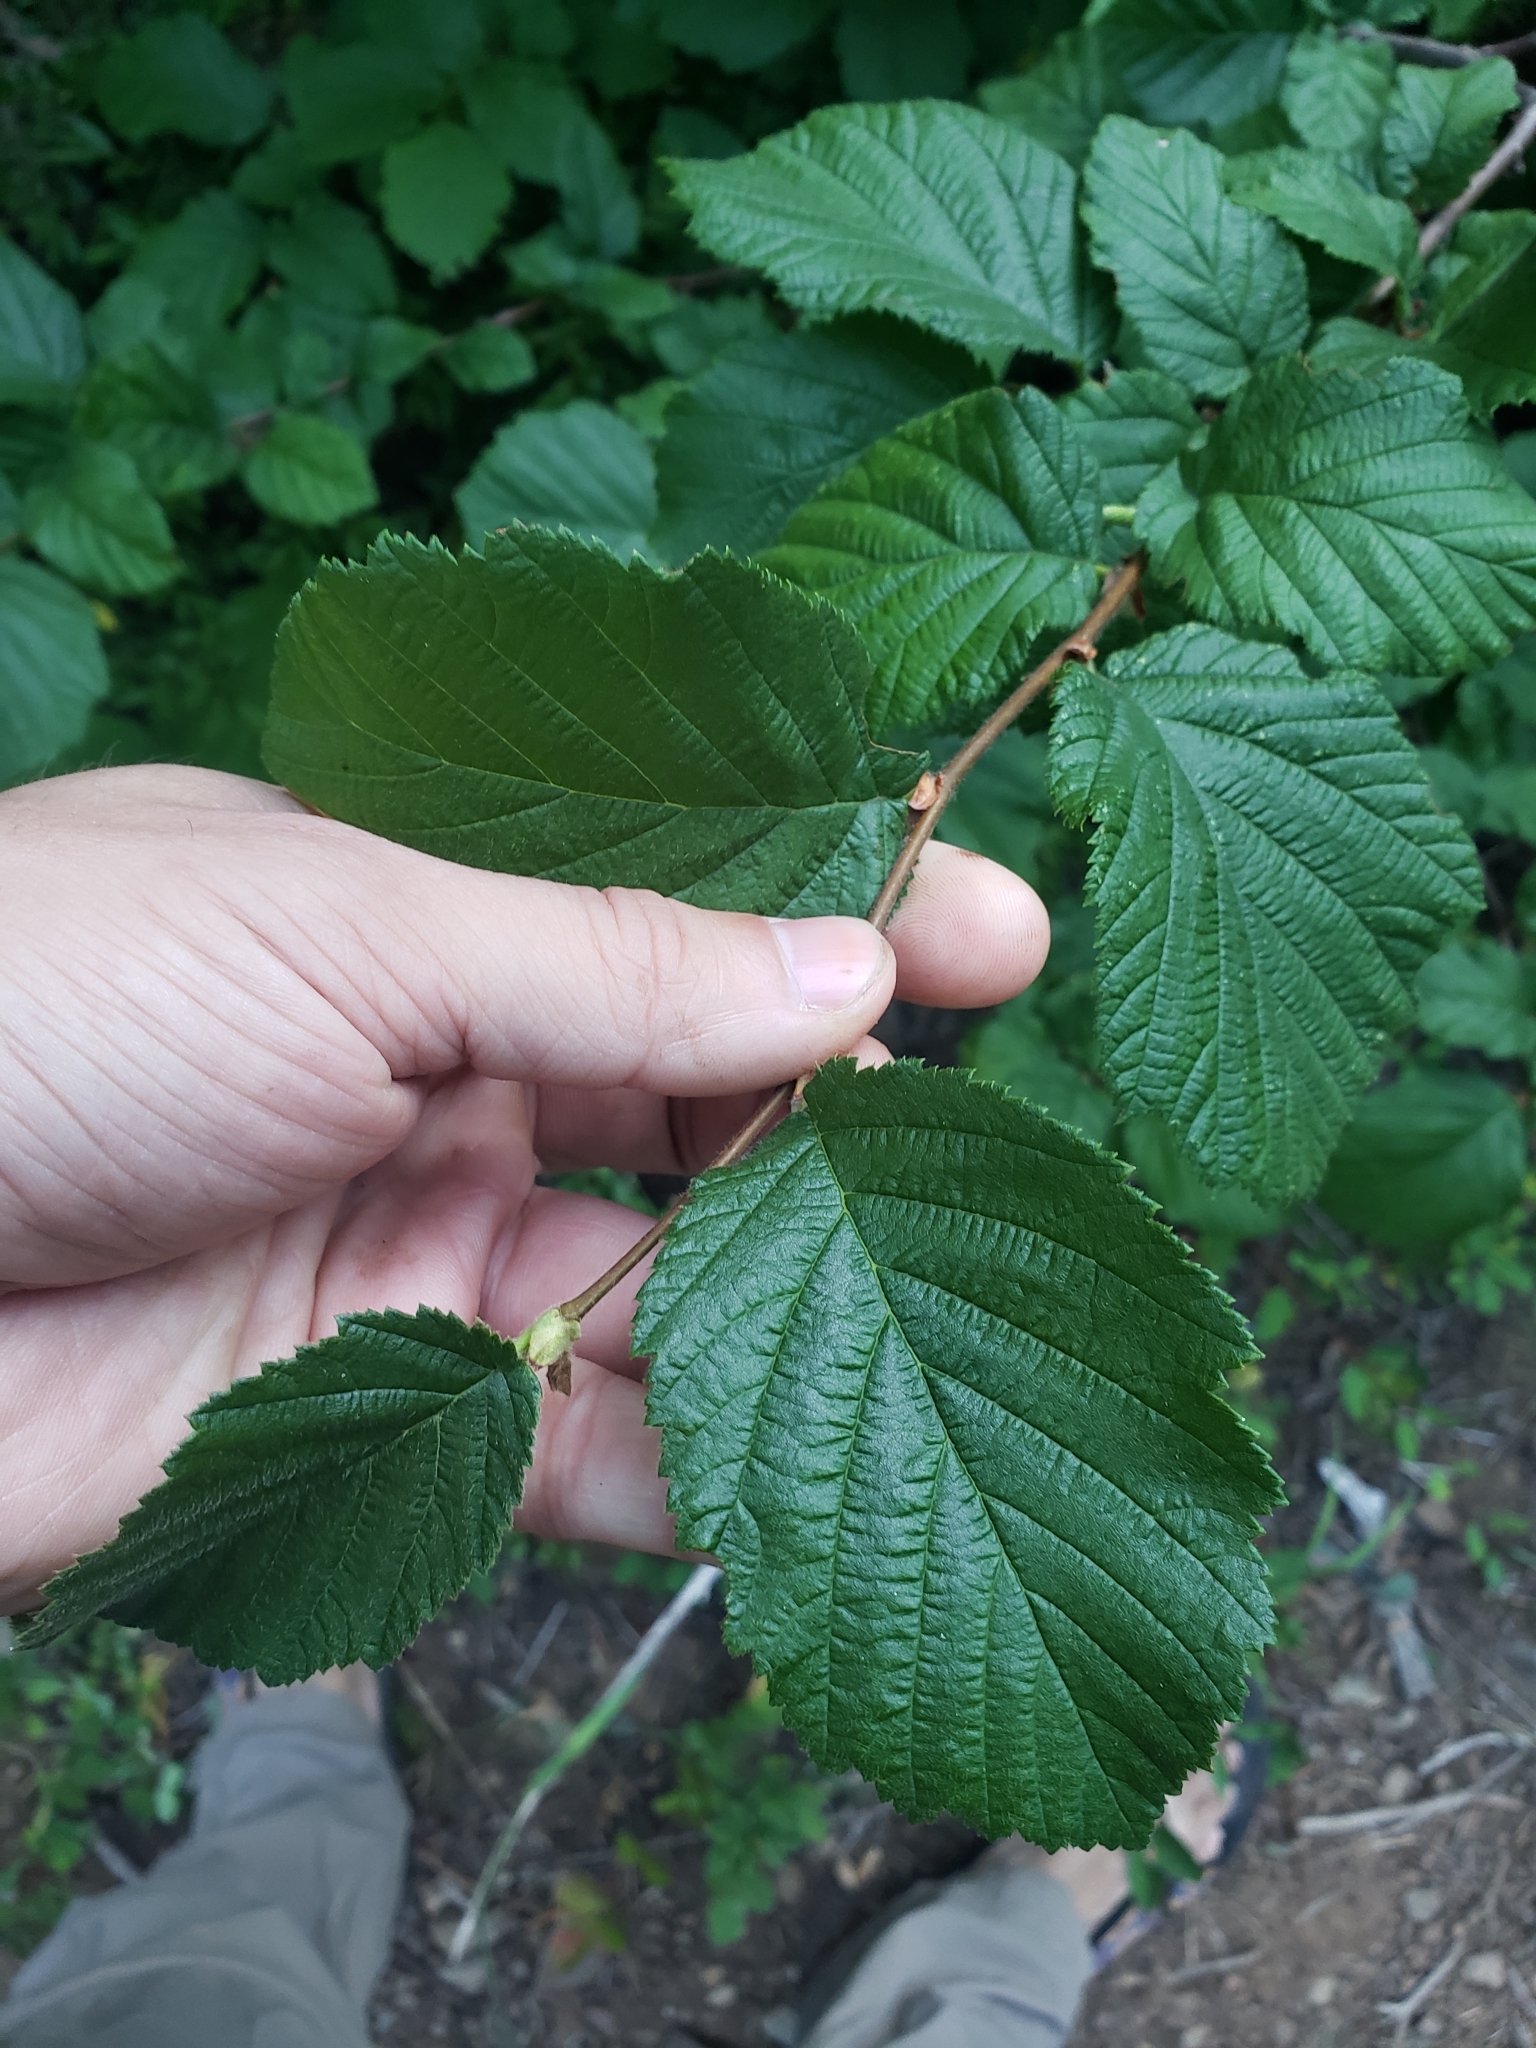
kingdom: Plantae
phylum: Tracheophyta
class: Magnoliopsida
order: Fagales
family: Betulaceae
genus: Corylus
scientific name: Corylus cornuta
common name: Beaked hazel
